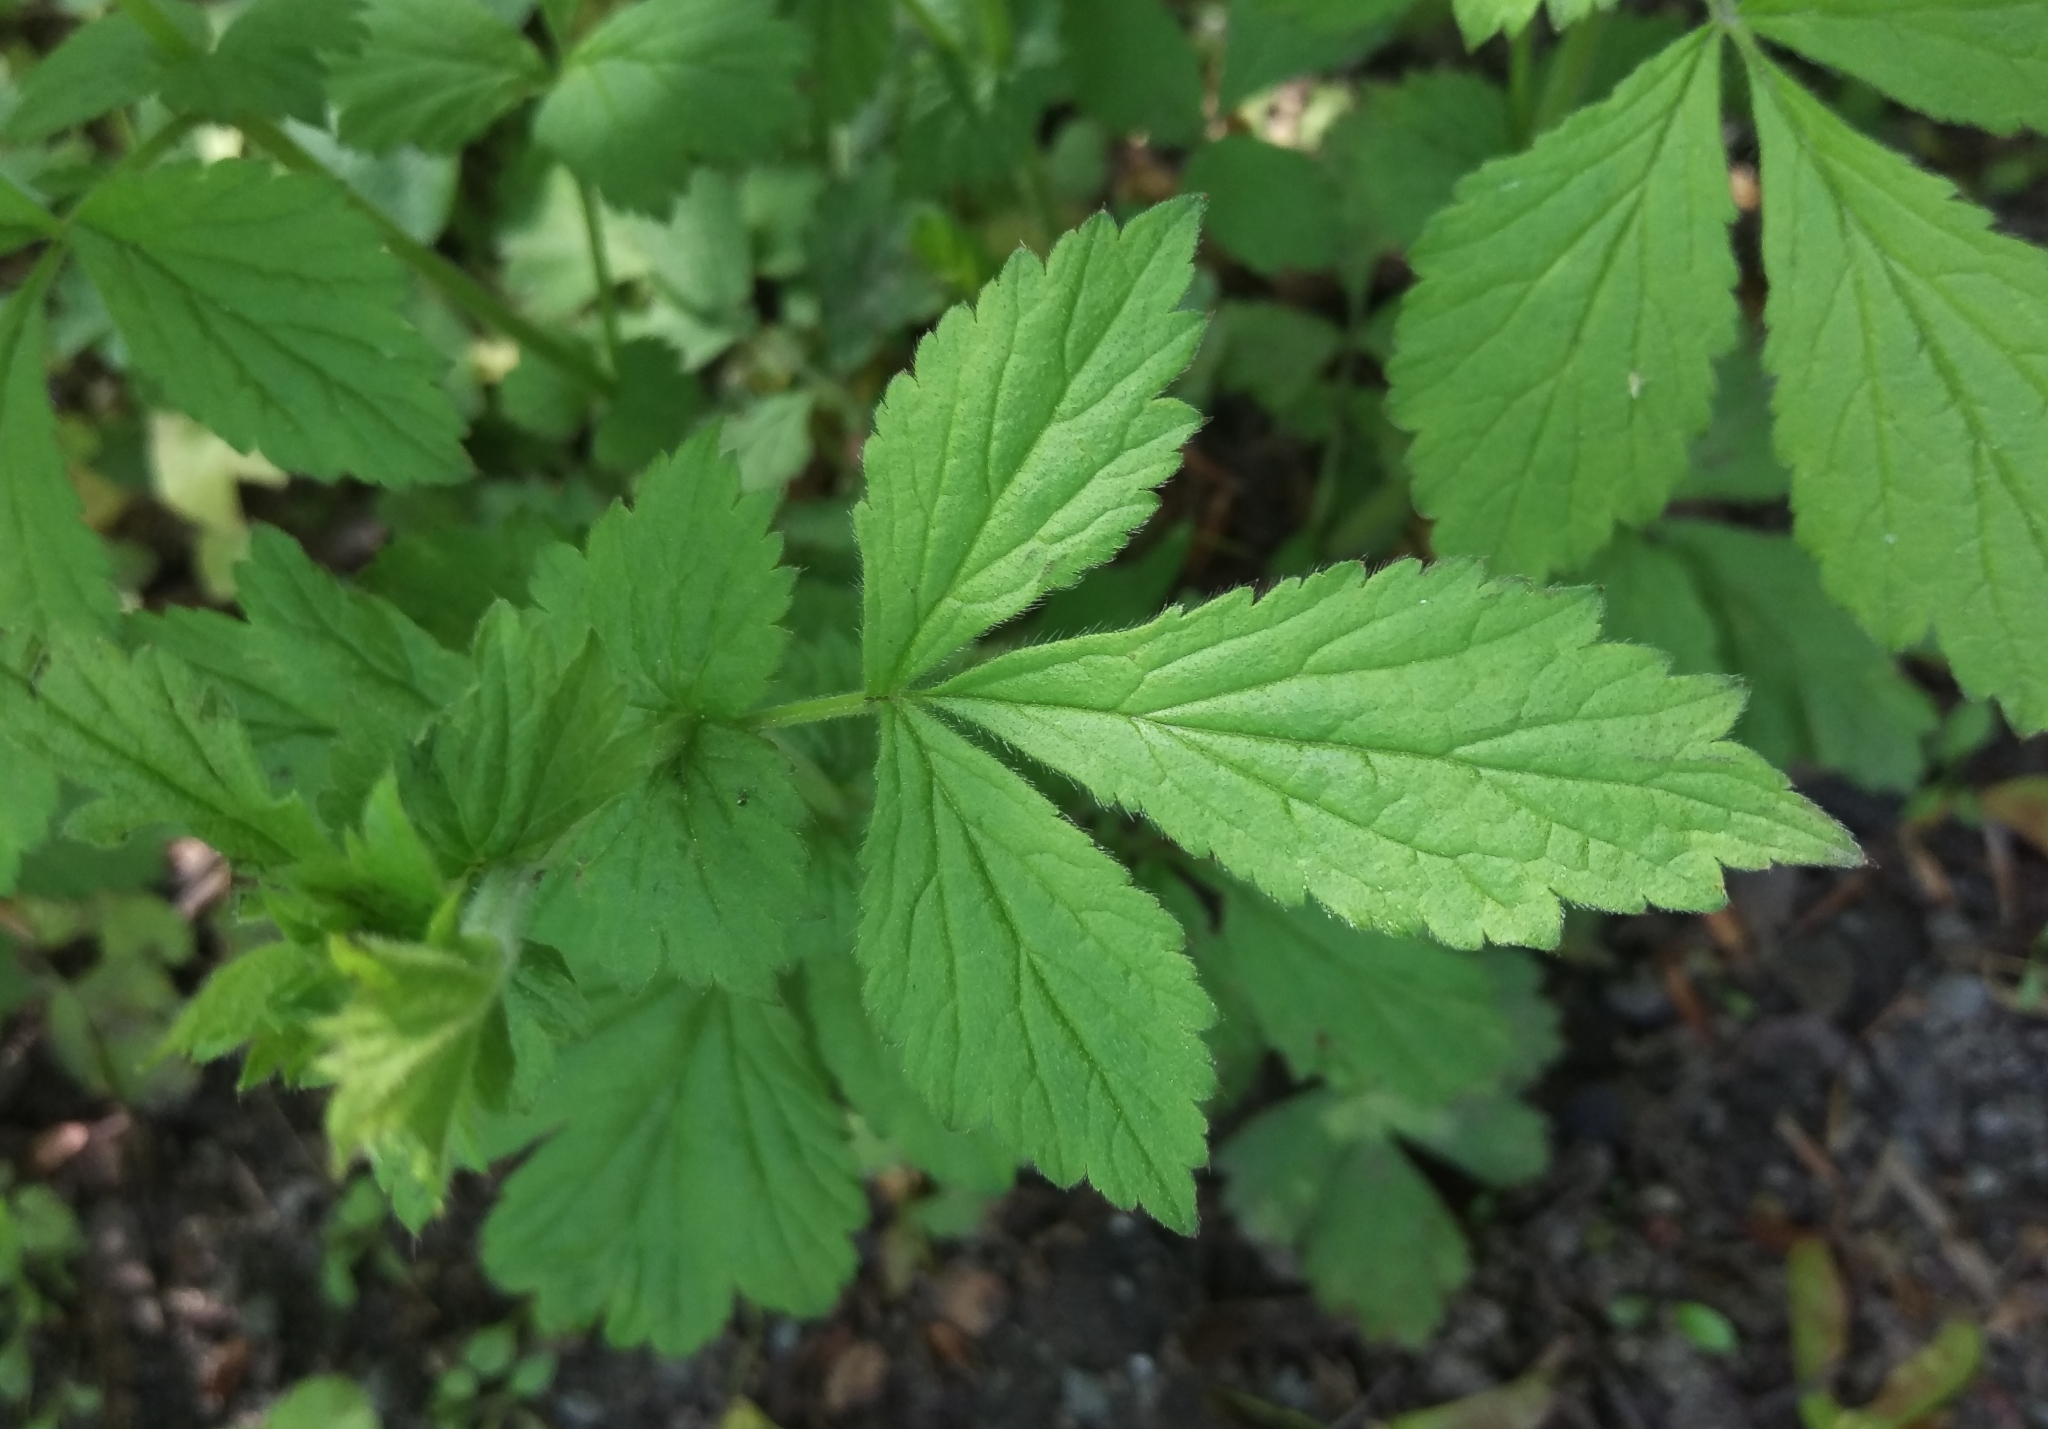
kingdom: Plantae
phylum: Tracheophyta
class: Magnoliopsida
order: Rosales
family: Rosaceae
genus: Geum
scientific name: Geum urbanum
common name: Wood avens
